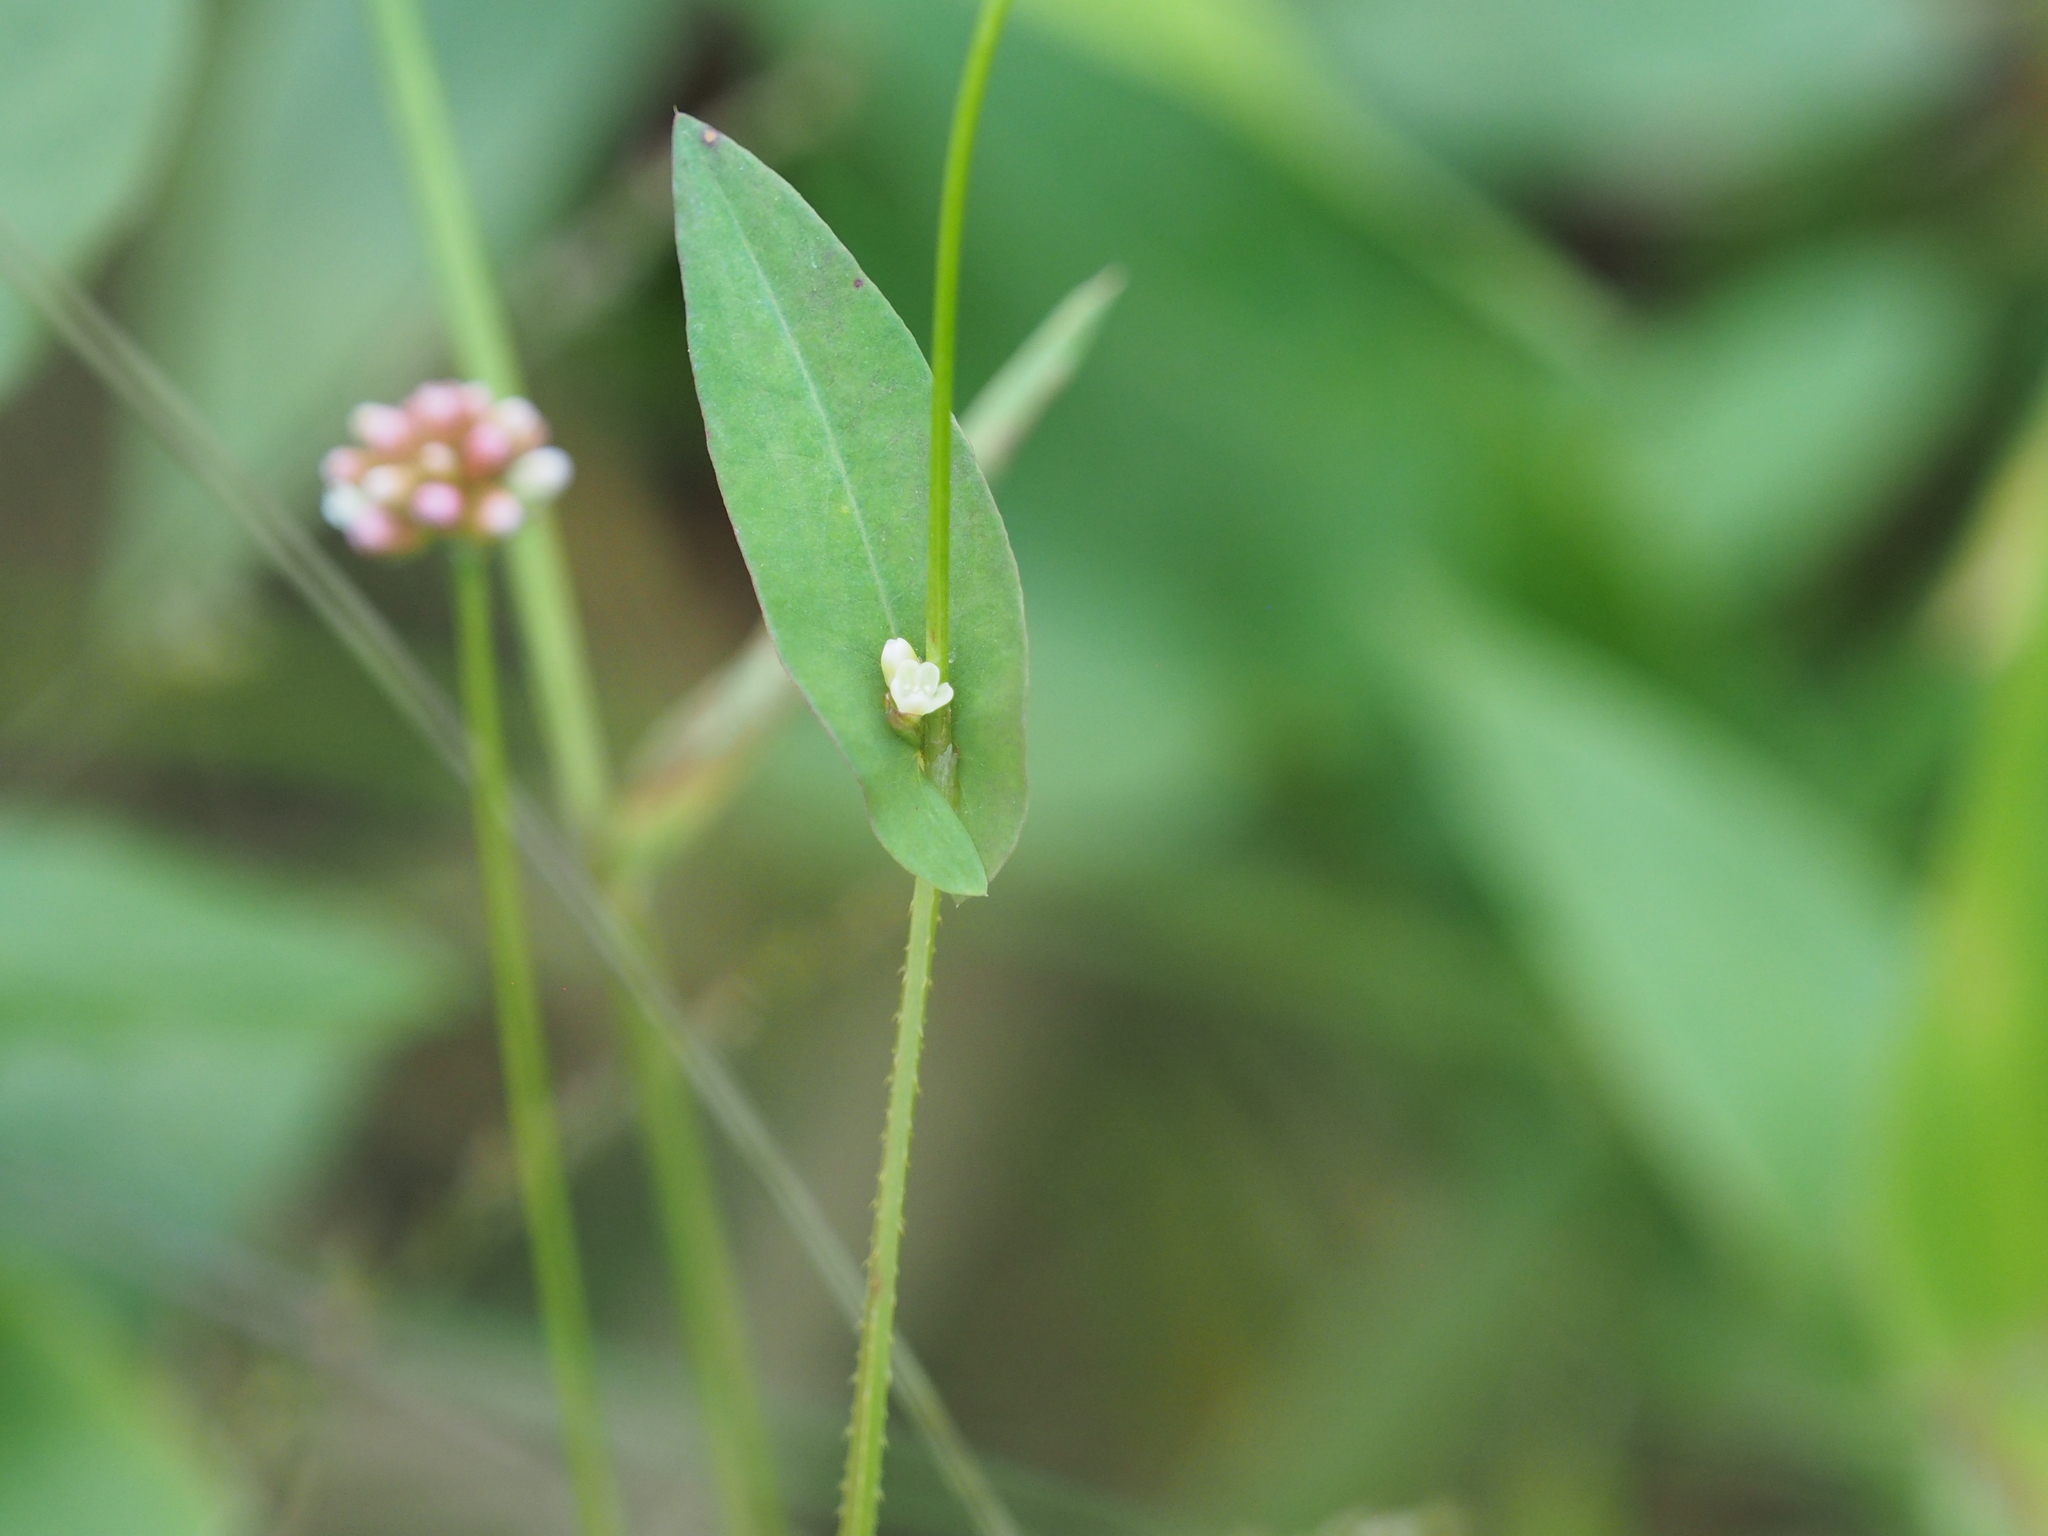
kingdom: Plantae
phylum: Tracheophyta
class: Magnoliopsida
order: Caryophyllales
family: Polygonaceae
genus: Persicaria
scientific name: Persicaria sagittata
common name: American tearthumb
